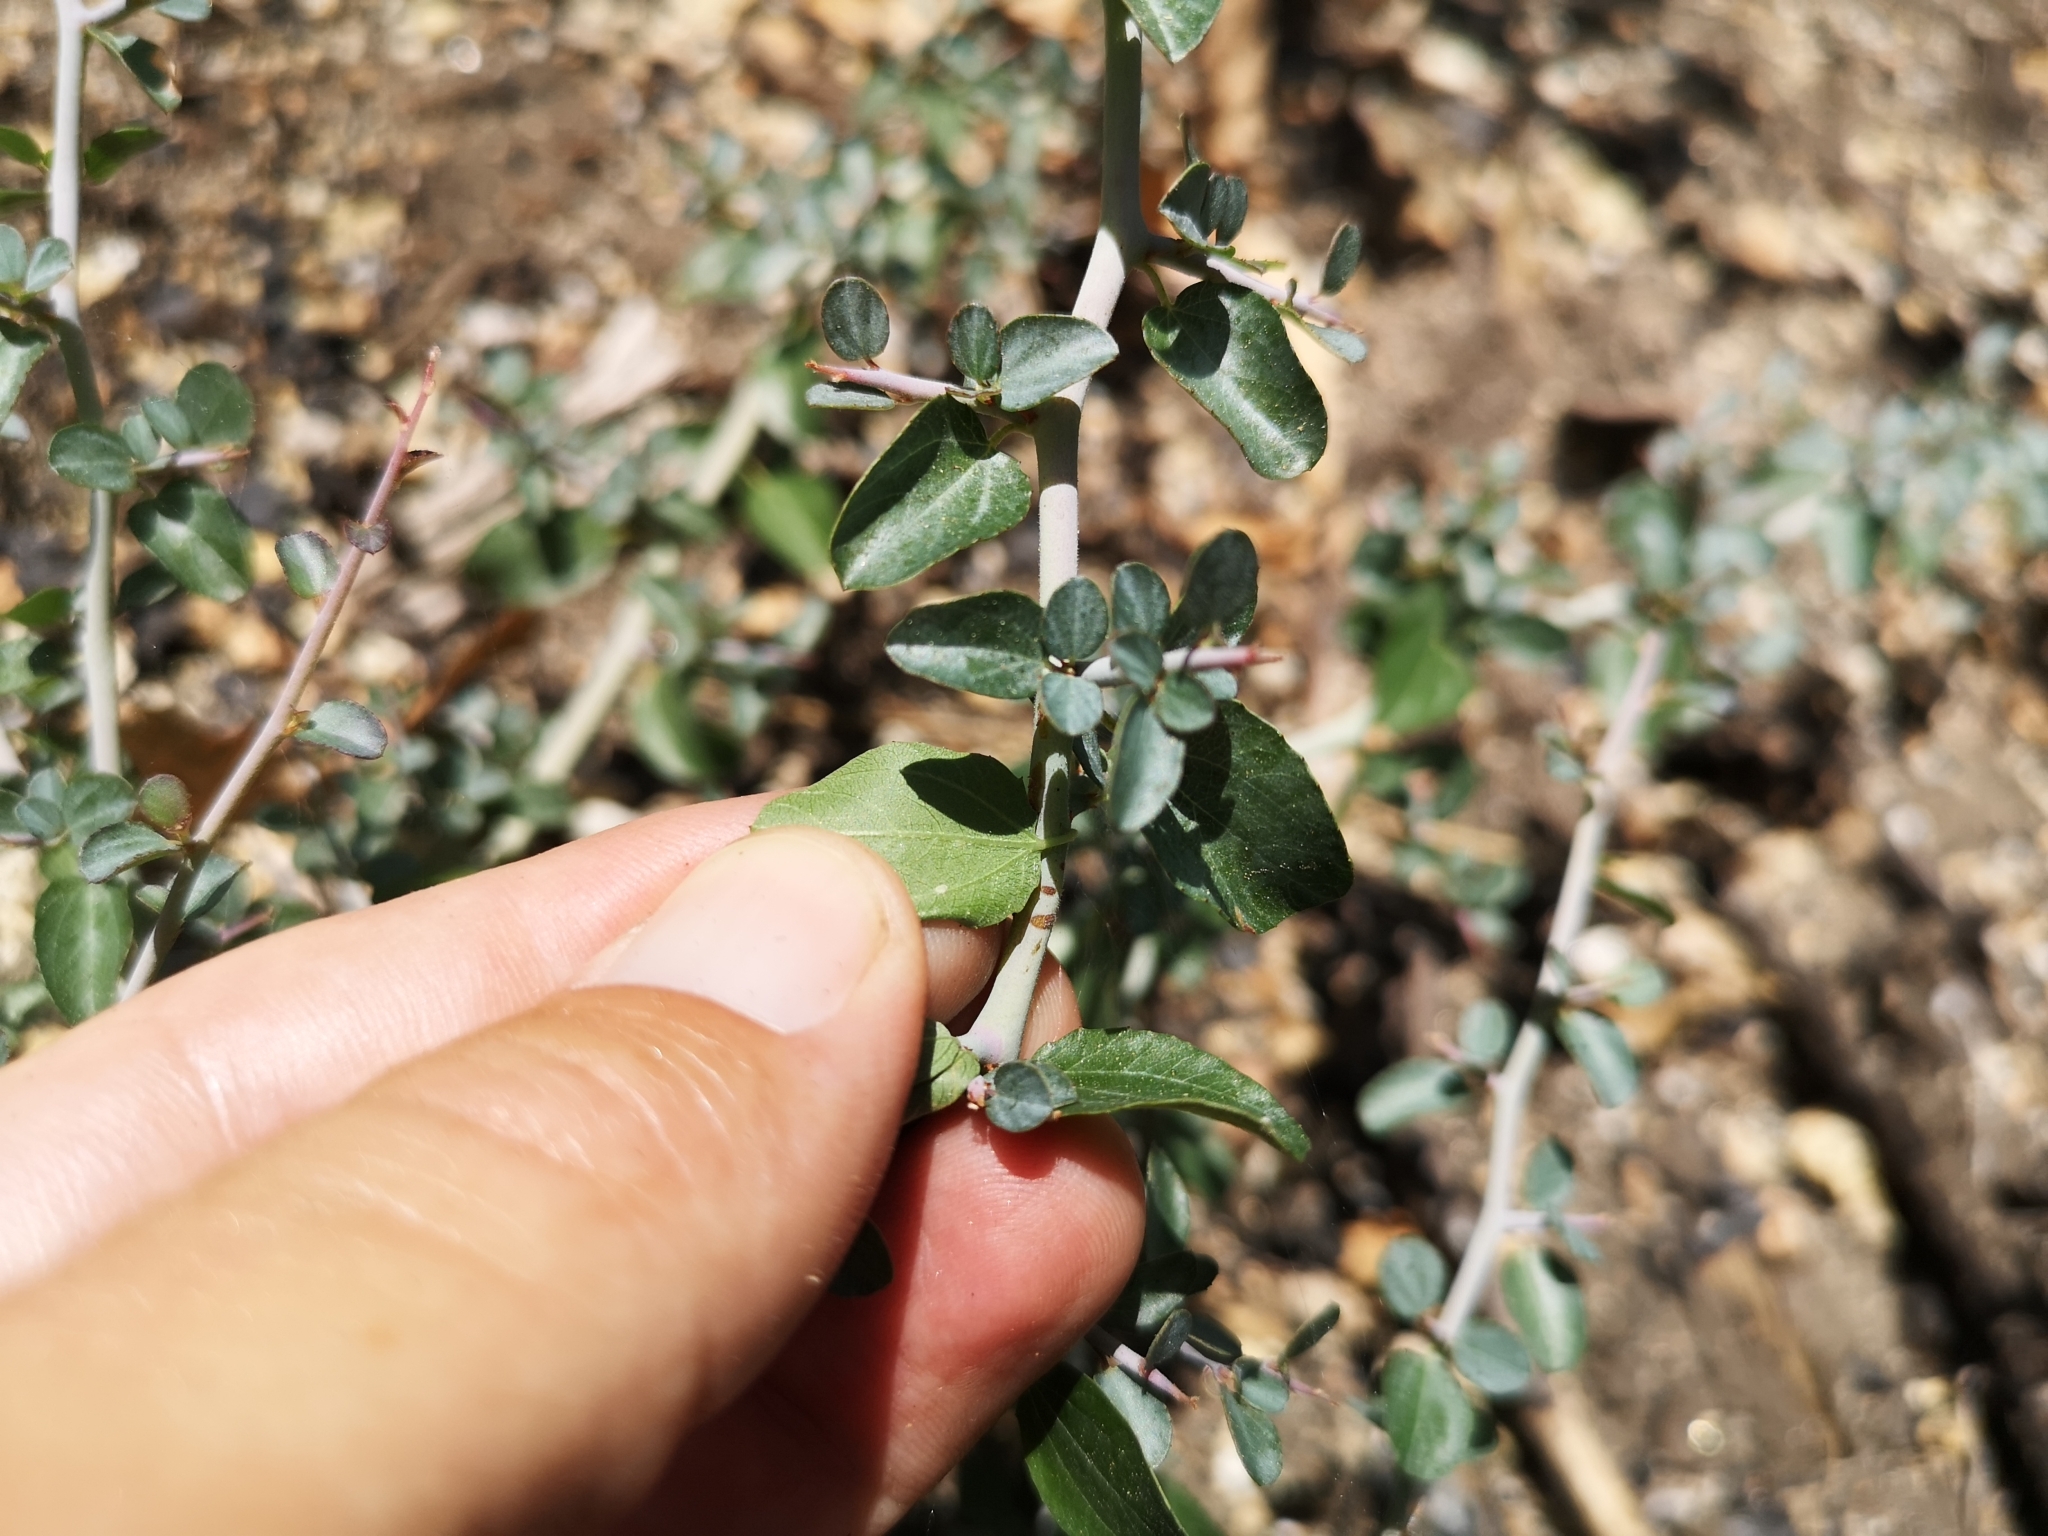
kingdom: Plantae
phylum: Tracheophyta
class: Magnoliopsida
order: Rosales
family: Rhamnaceae
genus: Ceanothus
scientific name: Ceanothus cordulatus
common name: Mountain whitethorn
